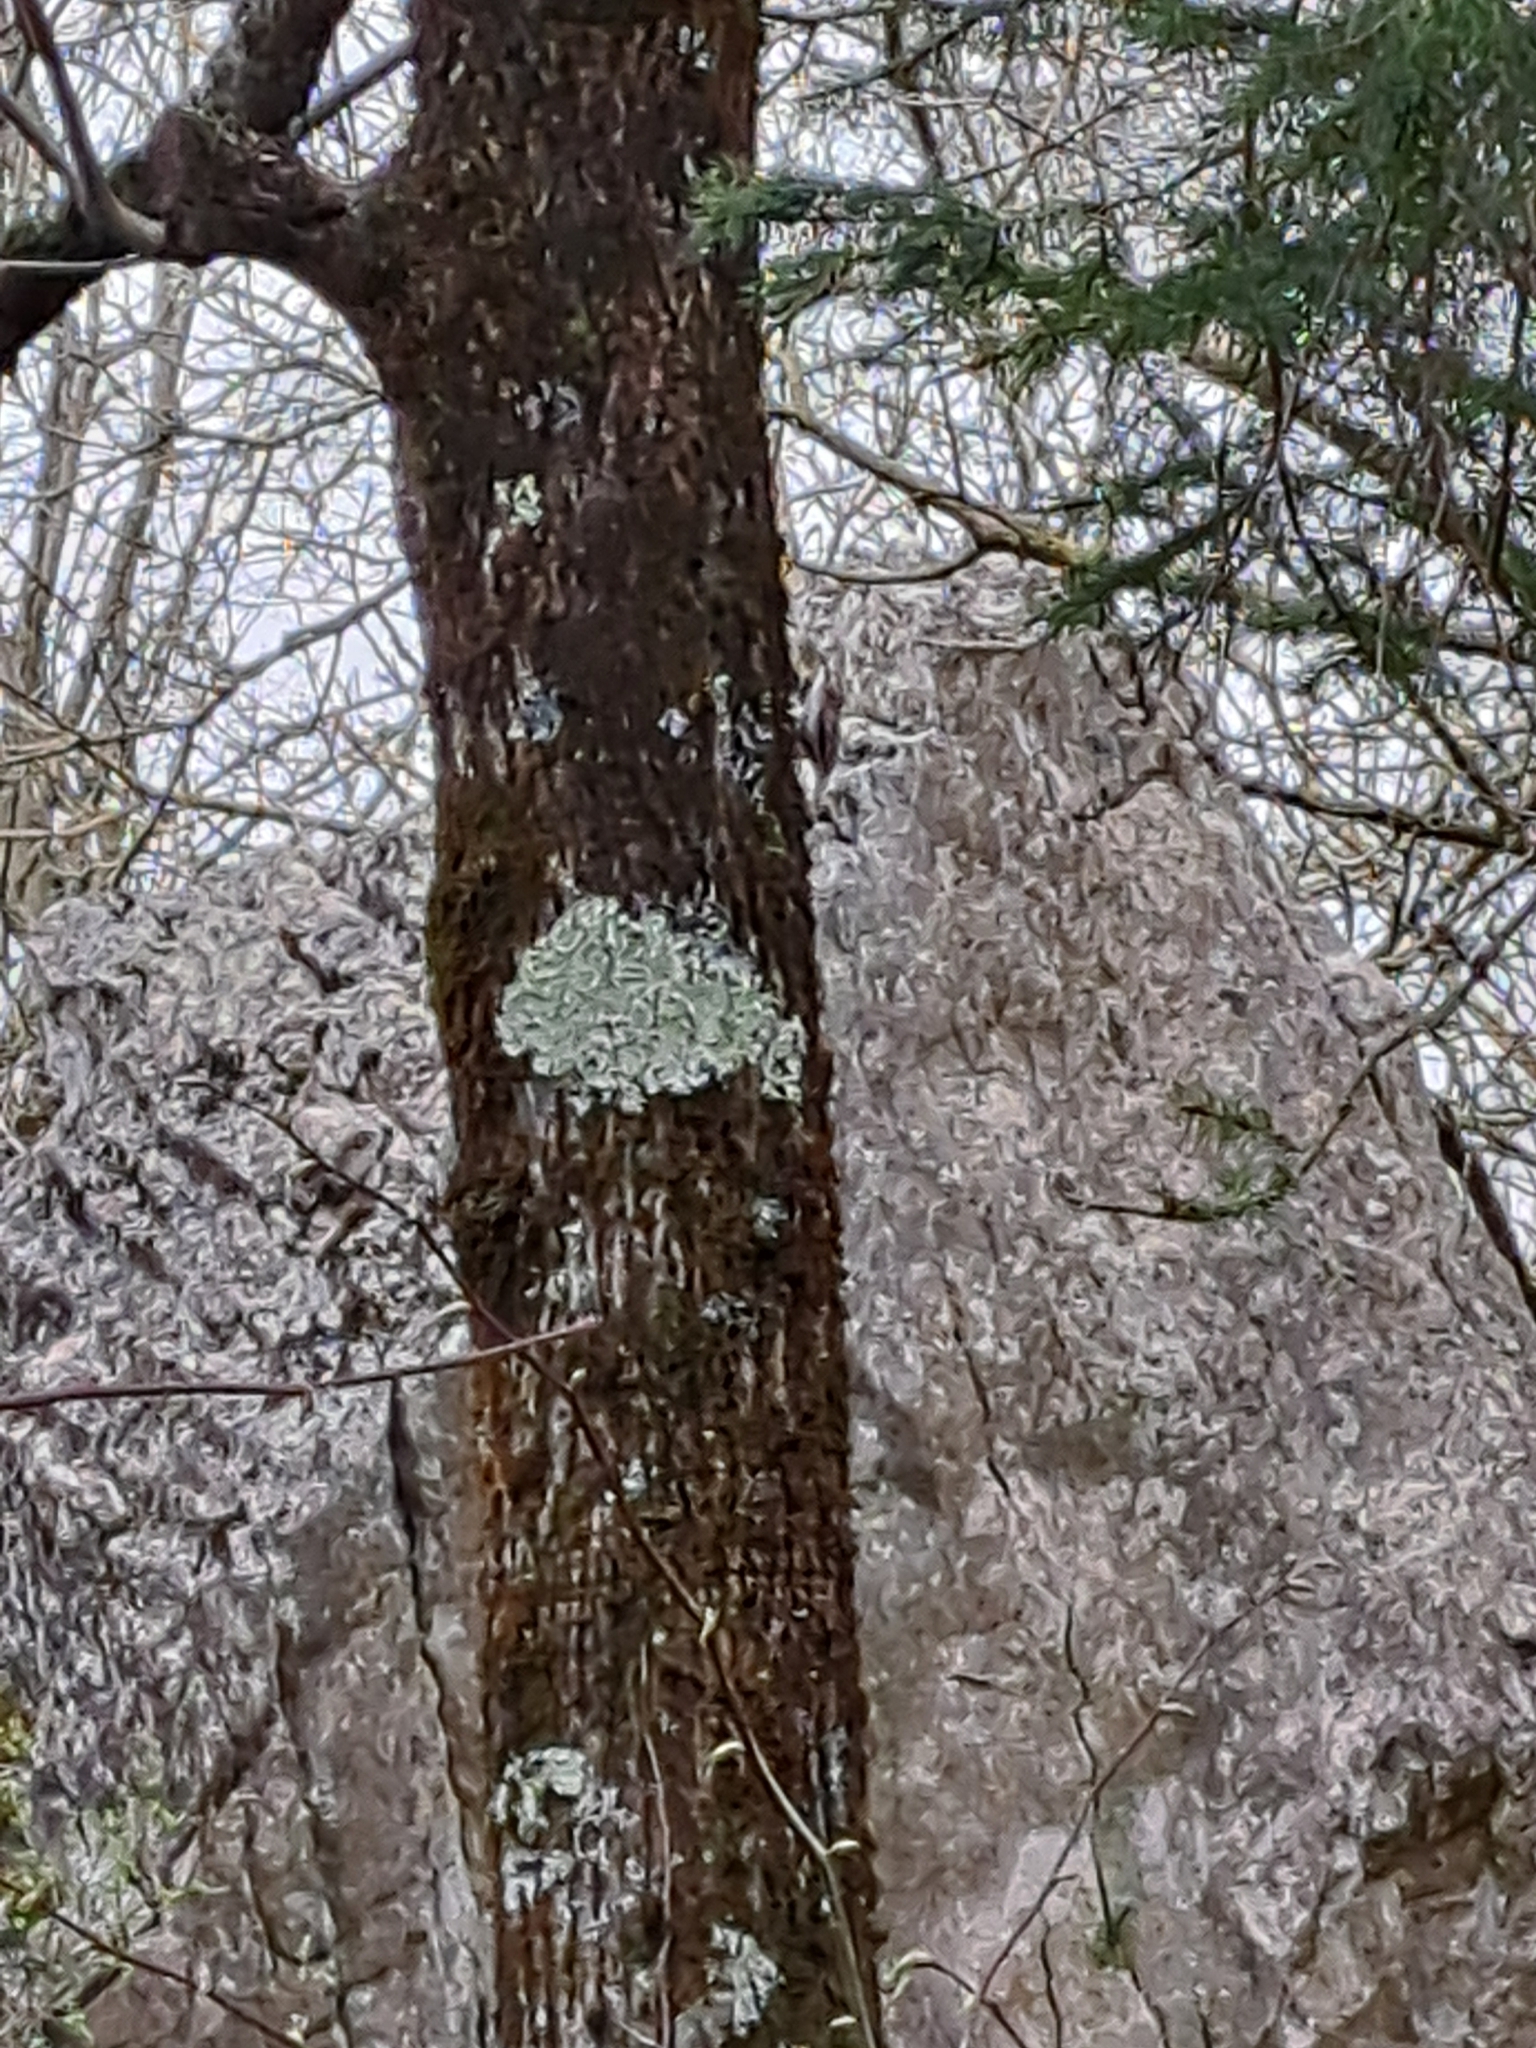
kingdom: Animalia
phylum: Chordata
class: Aves
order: Passeriformes
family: Certhiidae
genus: Certhia
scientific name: Certhia brachydactyla
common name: Short-toed treecreeper
